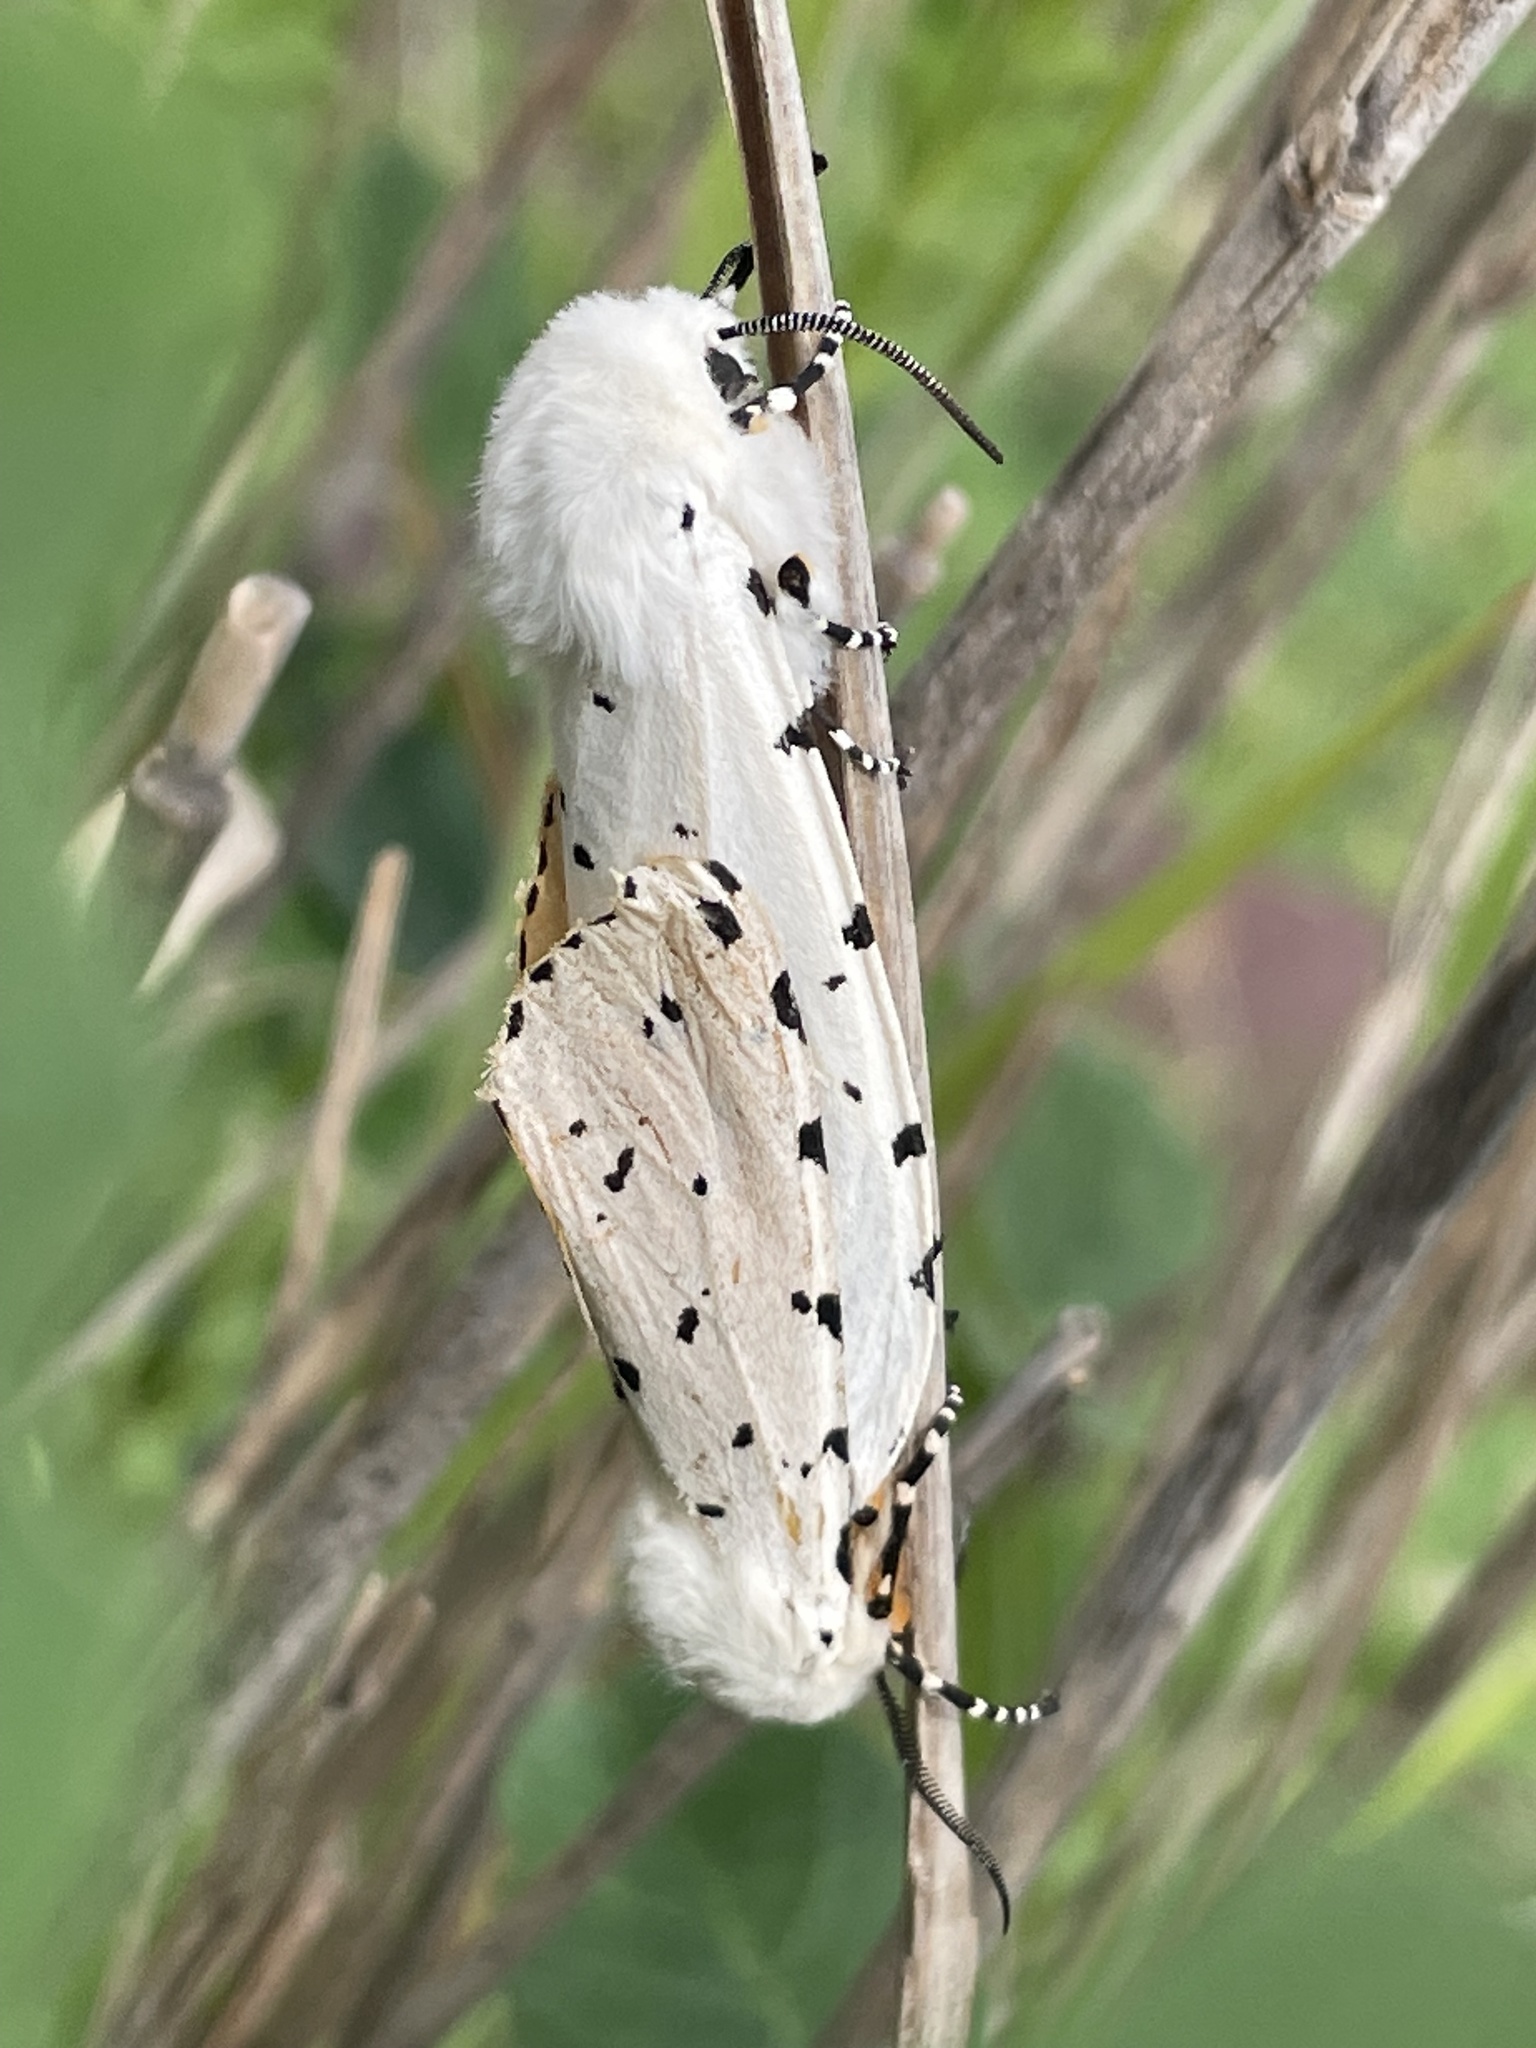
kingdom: Animalia
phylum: Arthropoda
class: Insecta
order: Lepidoptera
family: Erebidae
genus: Estigmene
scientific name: Estigmene acrea
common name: Salt marsh moth
